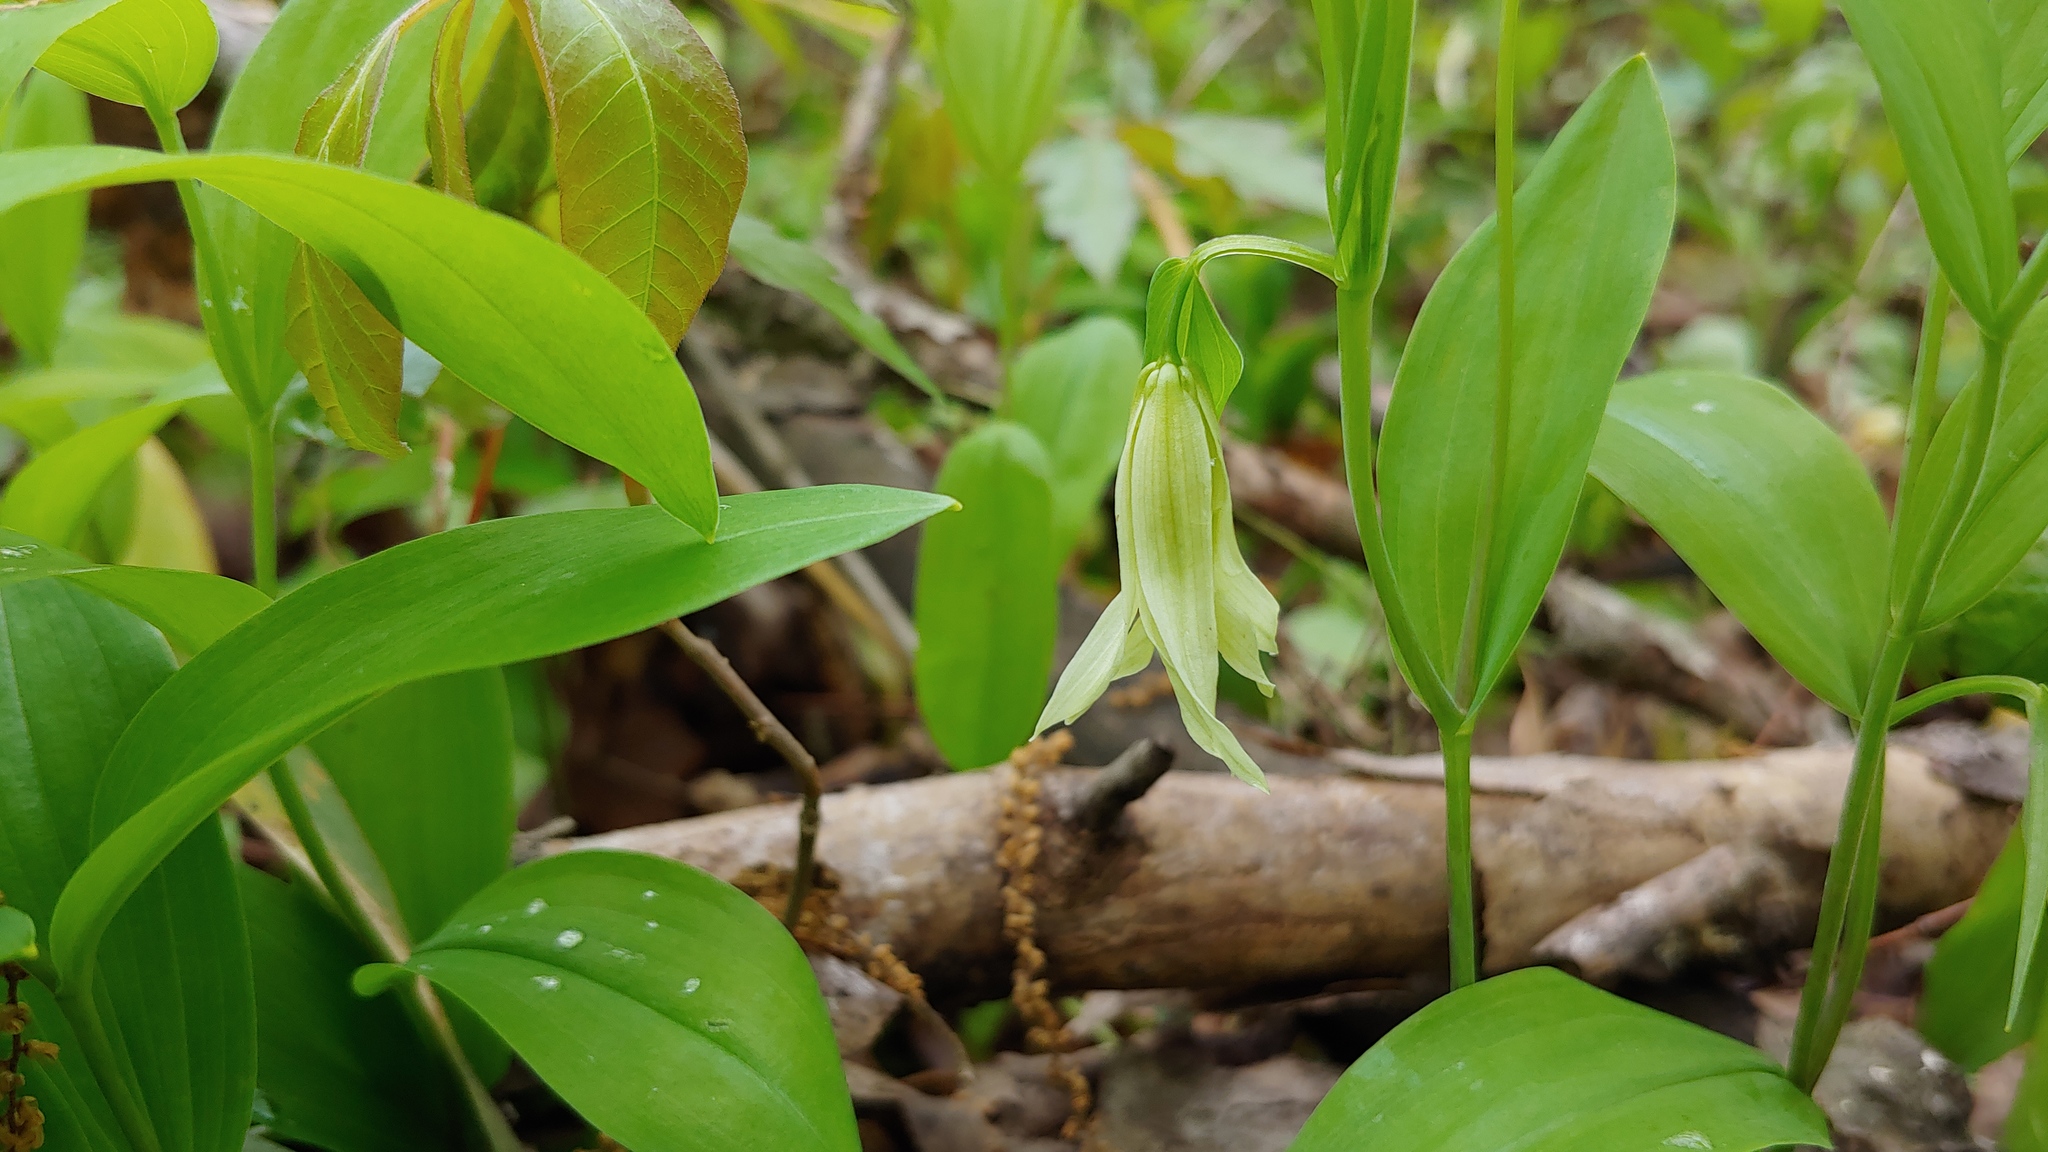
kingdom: Plantae
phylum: Tracheophyta
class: Liliopsida
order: Liliales
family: Colchicaceae
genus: Uvularia
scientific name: Uvularia floridana
